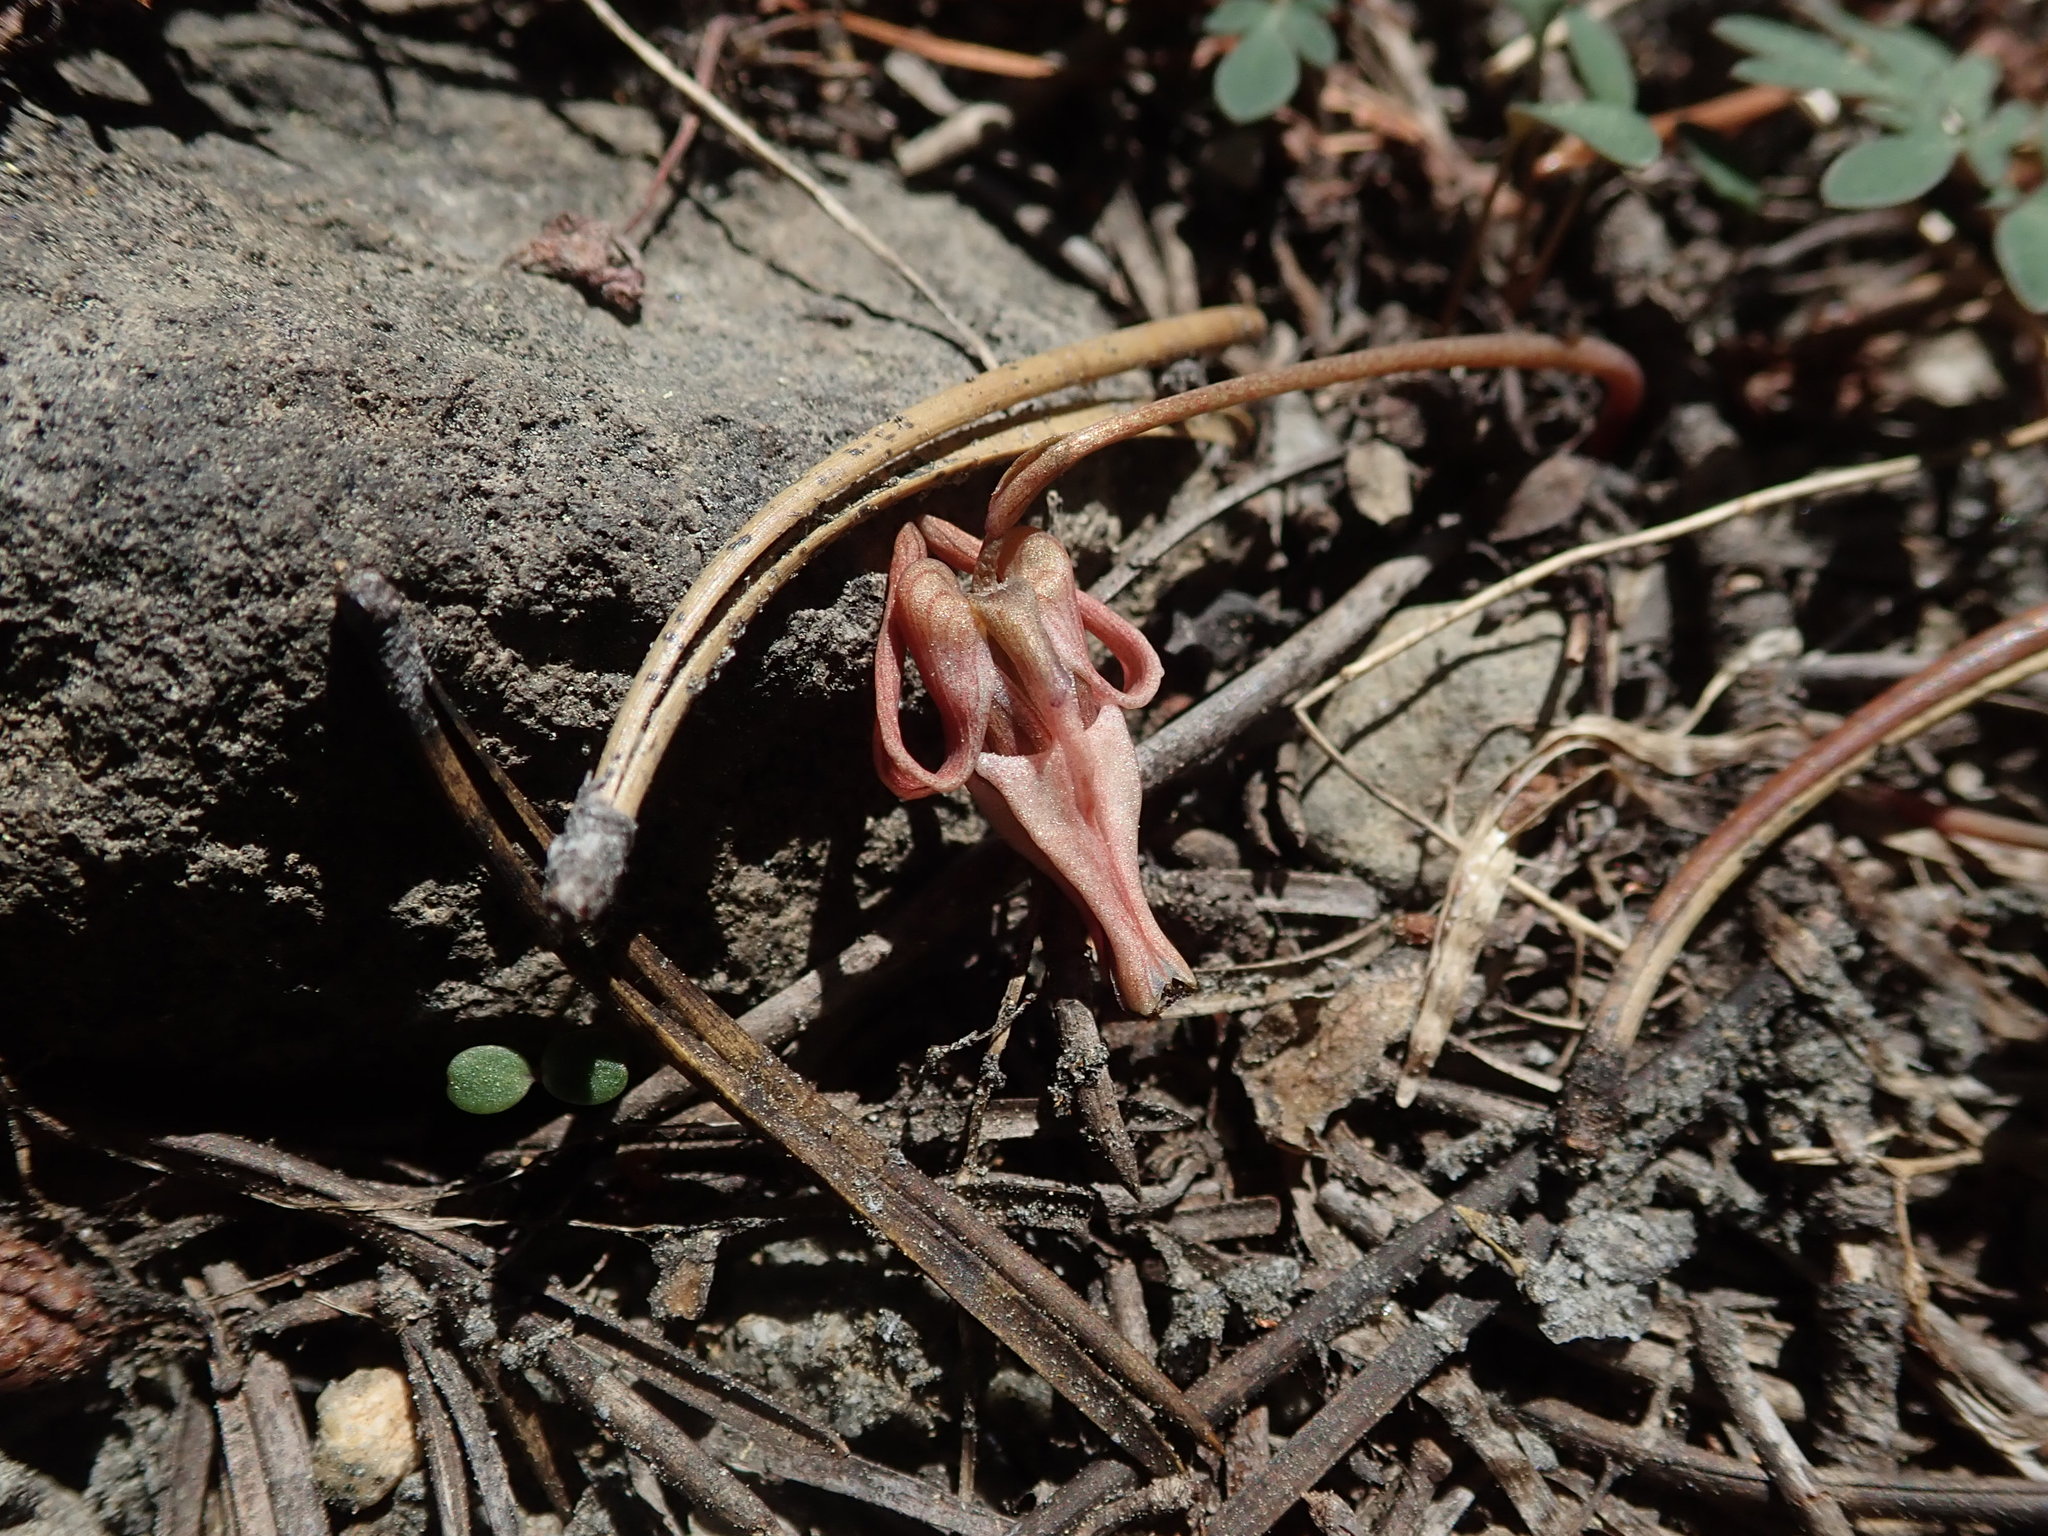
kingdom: Plantae
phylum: Tracheophyta
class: Magnoliopsida
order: Ranunculales
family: Papaveraceae
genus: Dicentra
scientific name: Dicentra uniflora
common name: Steer's-head
